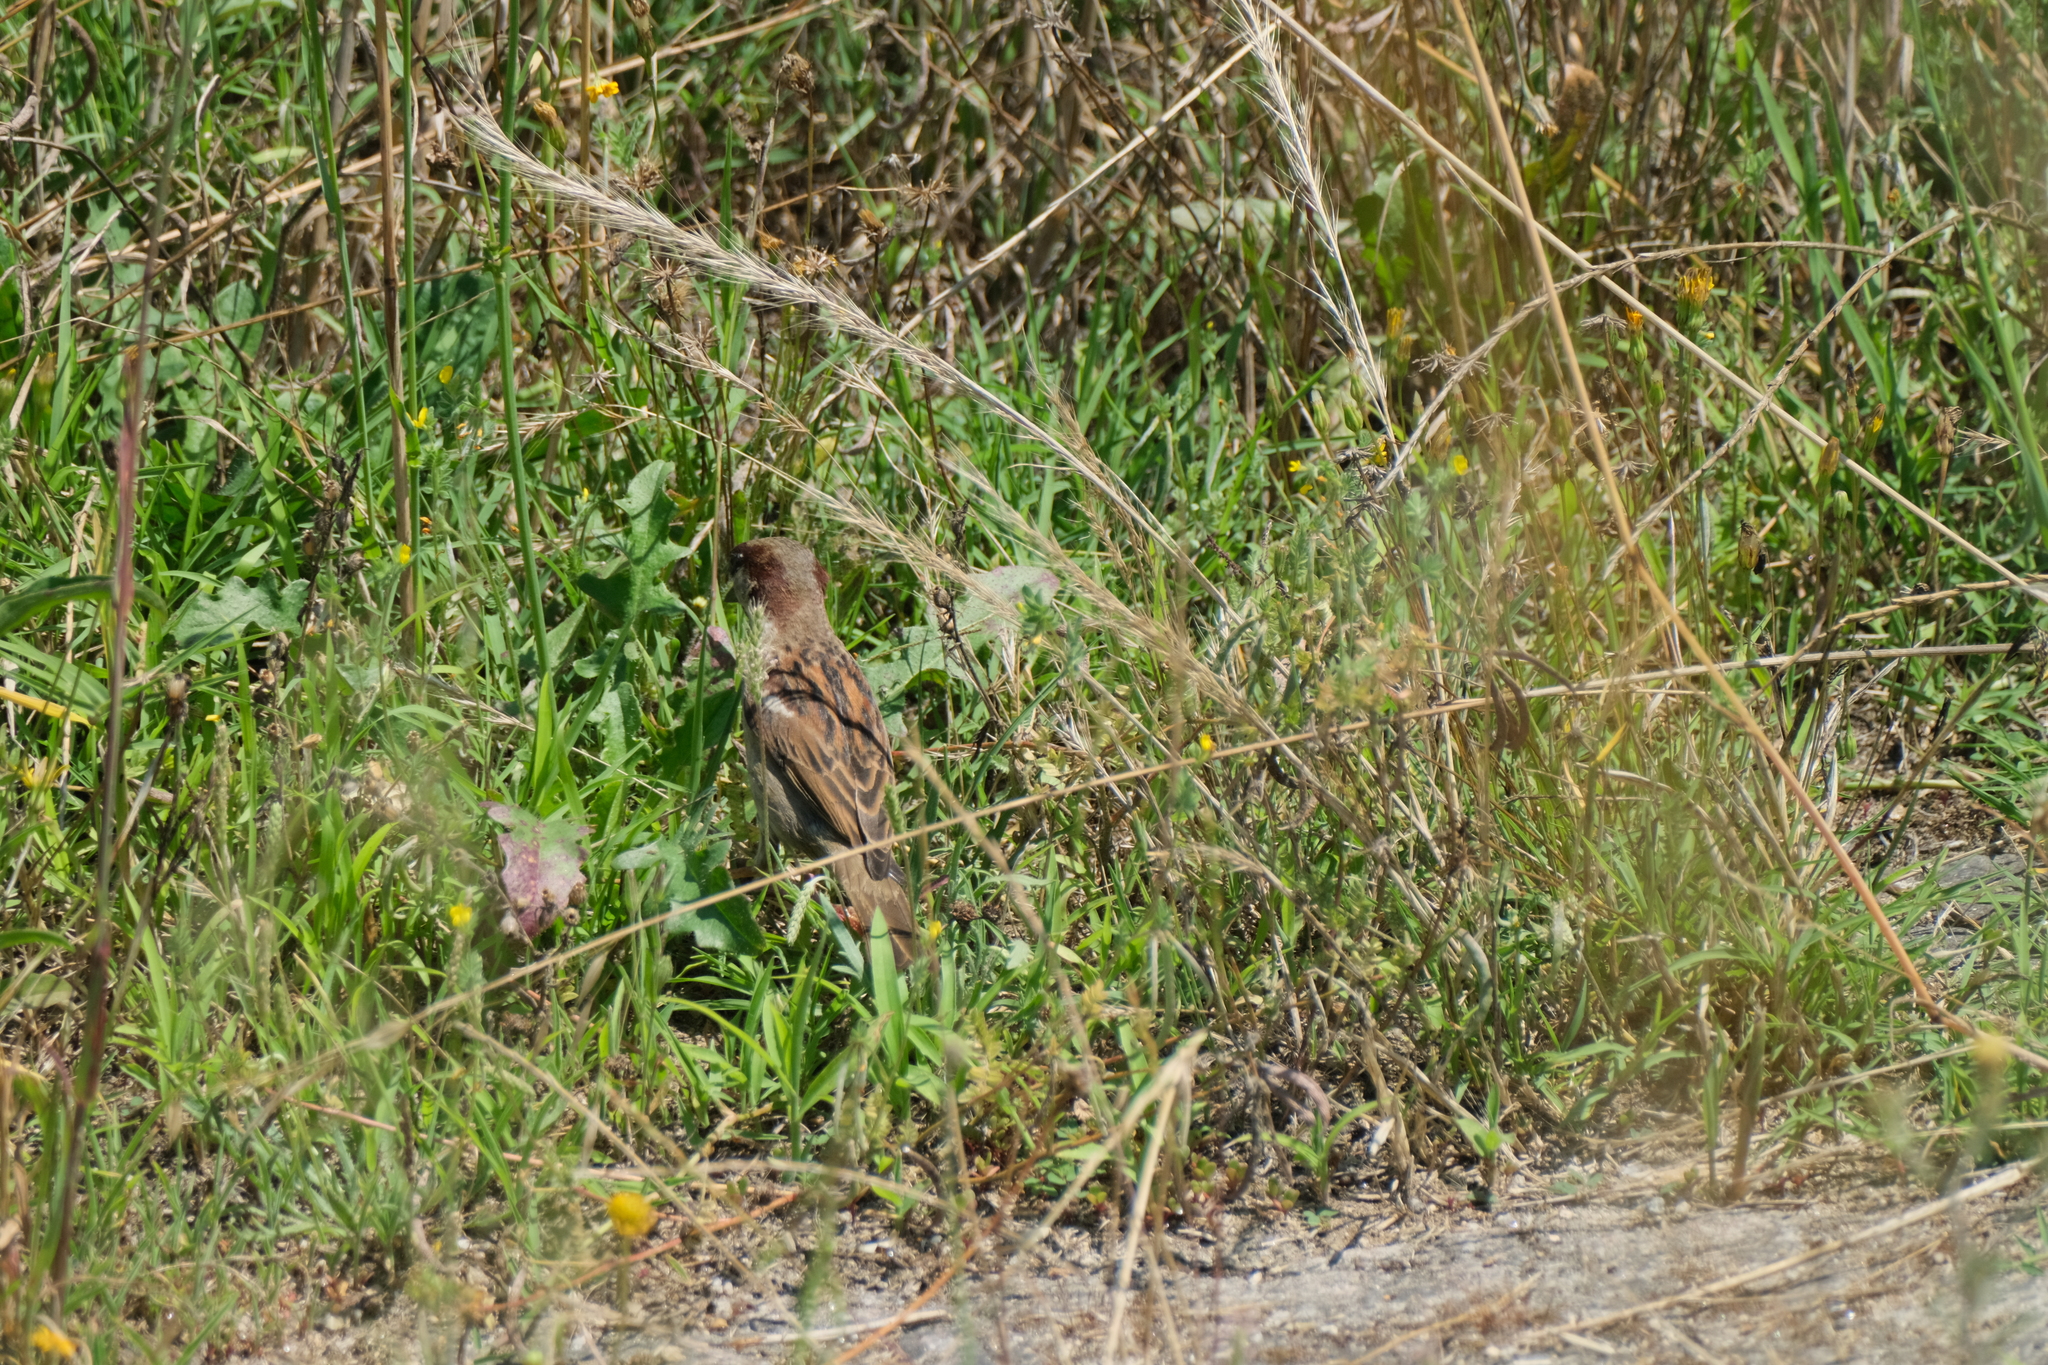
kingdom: Animalia
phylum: Chordata
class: Aves
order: Passeriformes
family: Passeridae
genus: Passer
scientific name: Passer domesticus
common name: House sparrow
